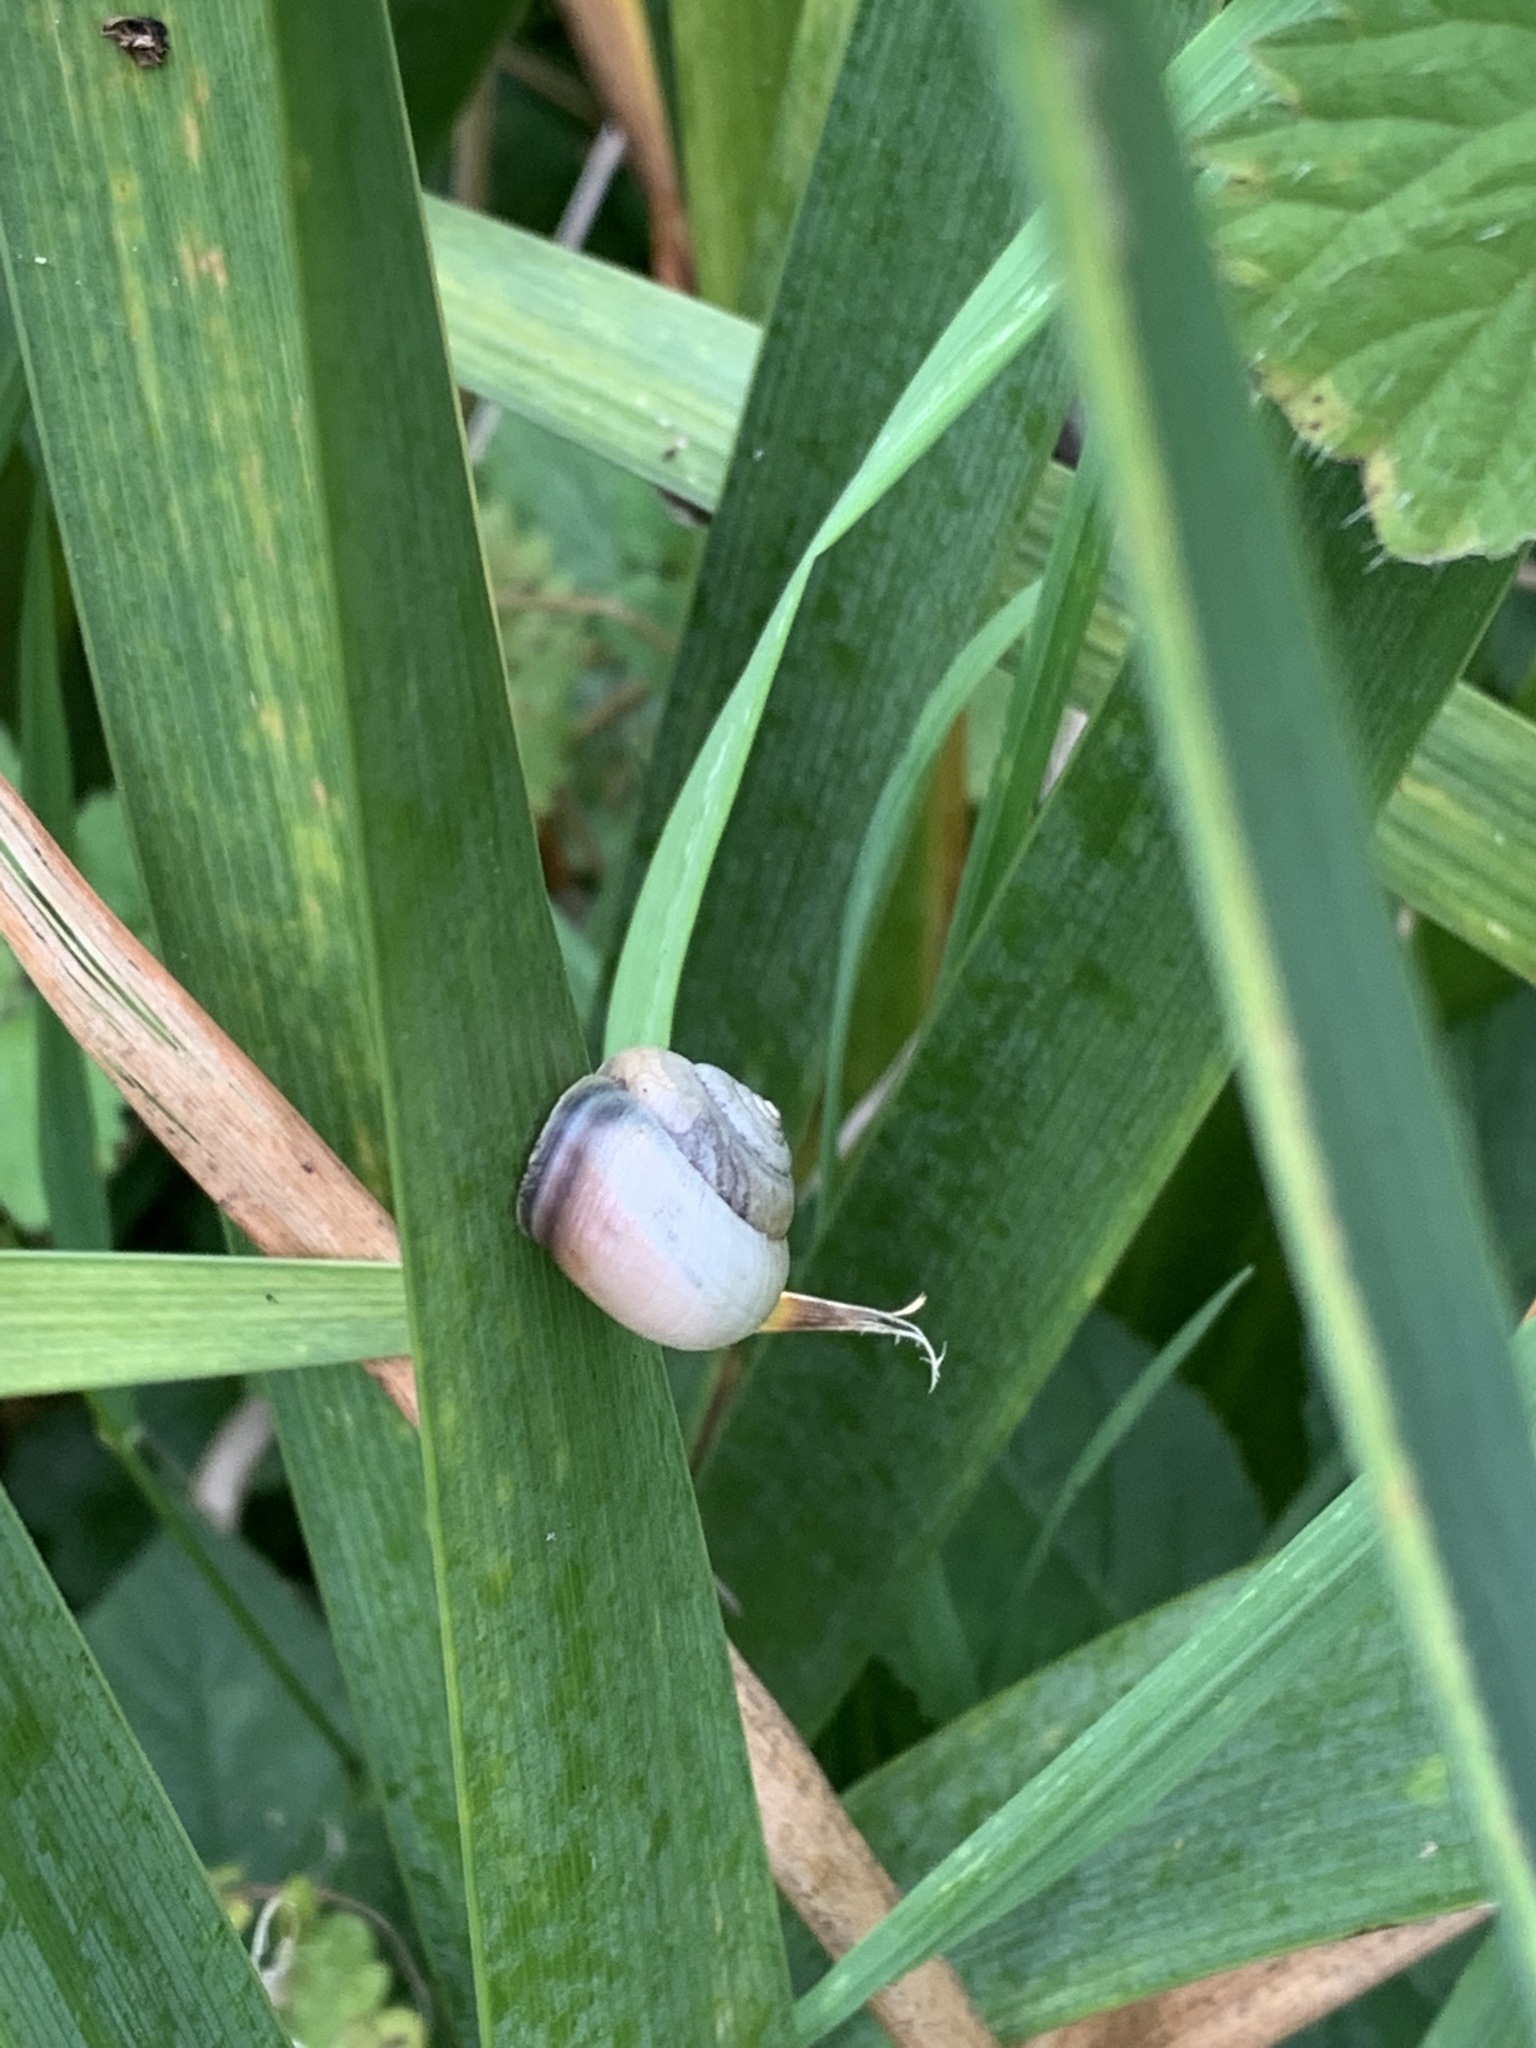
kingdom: Animalia
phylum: Mollusca
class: Gastropoda
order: Stylommatophora
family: Hygromiidae
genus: Monacha
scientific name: Monacha cantiana
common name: Kentish snail
